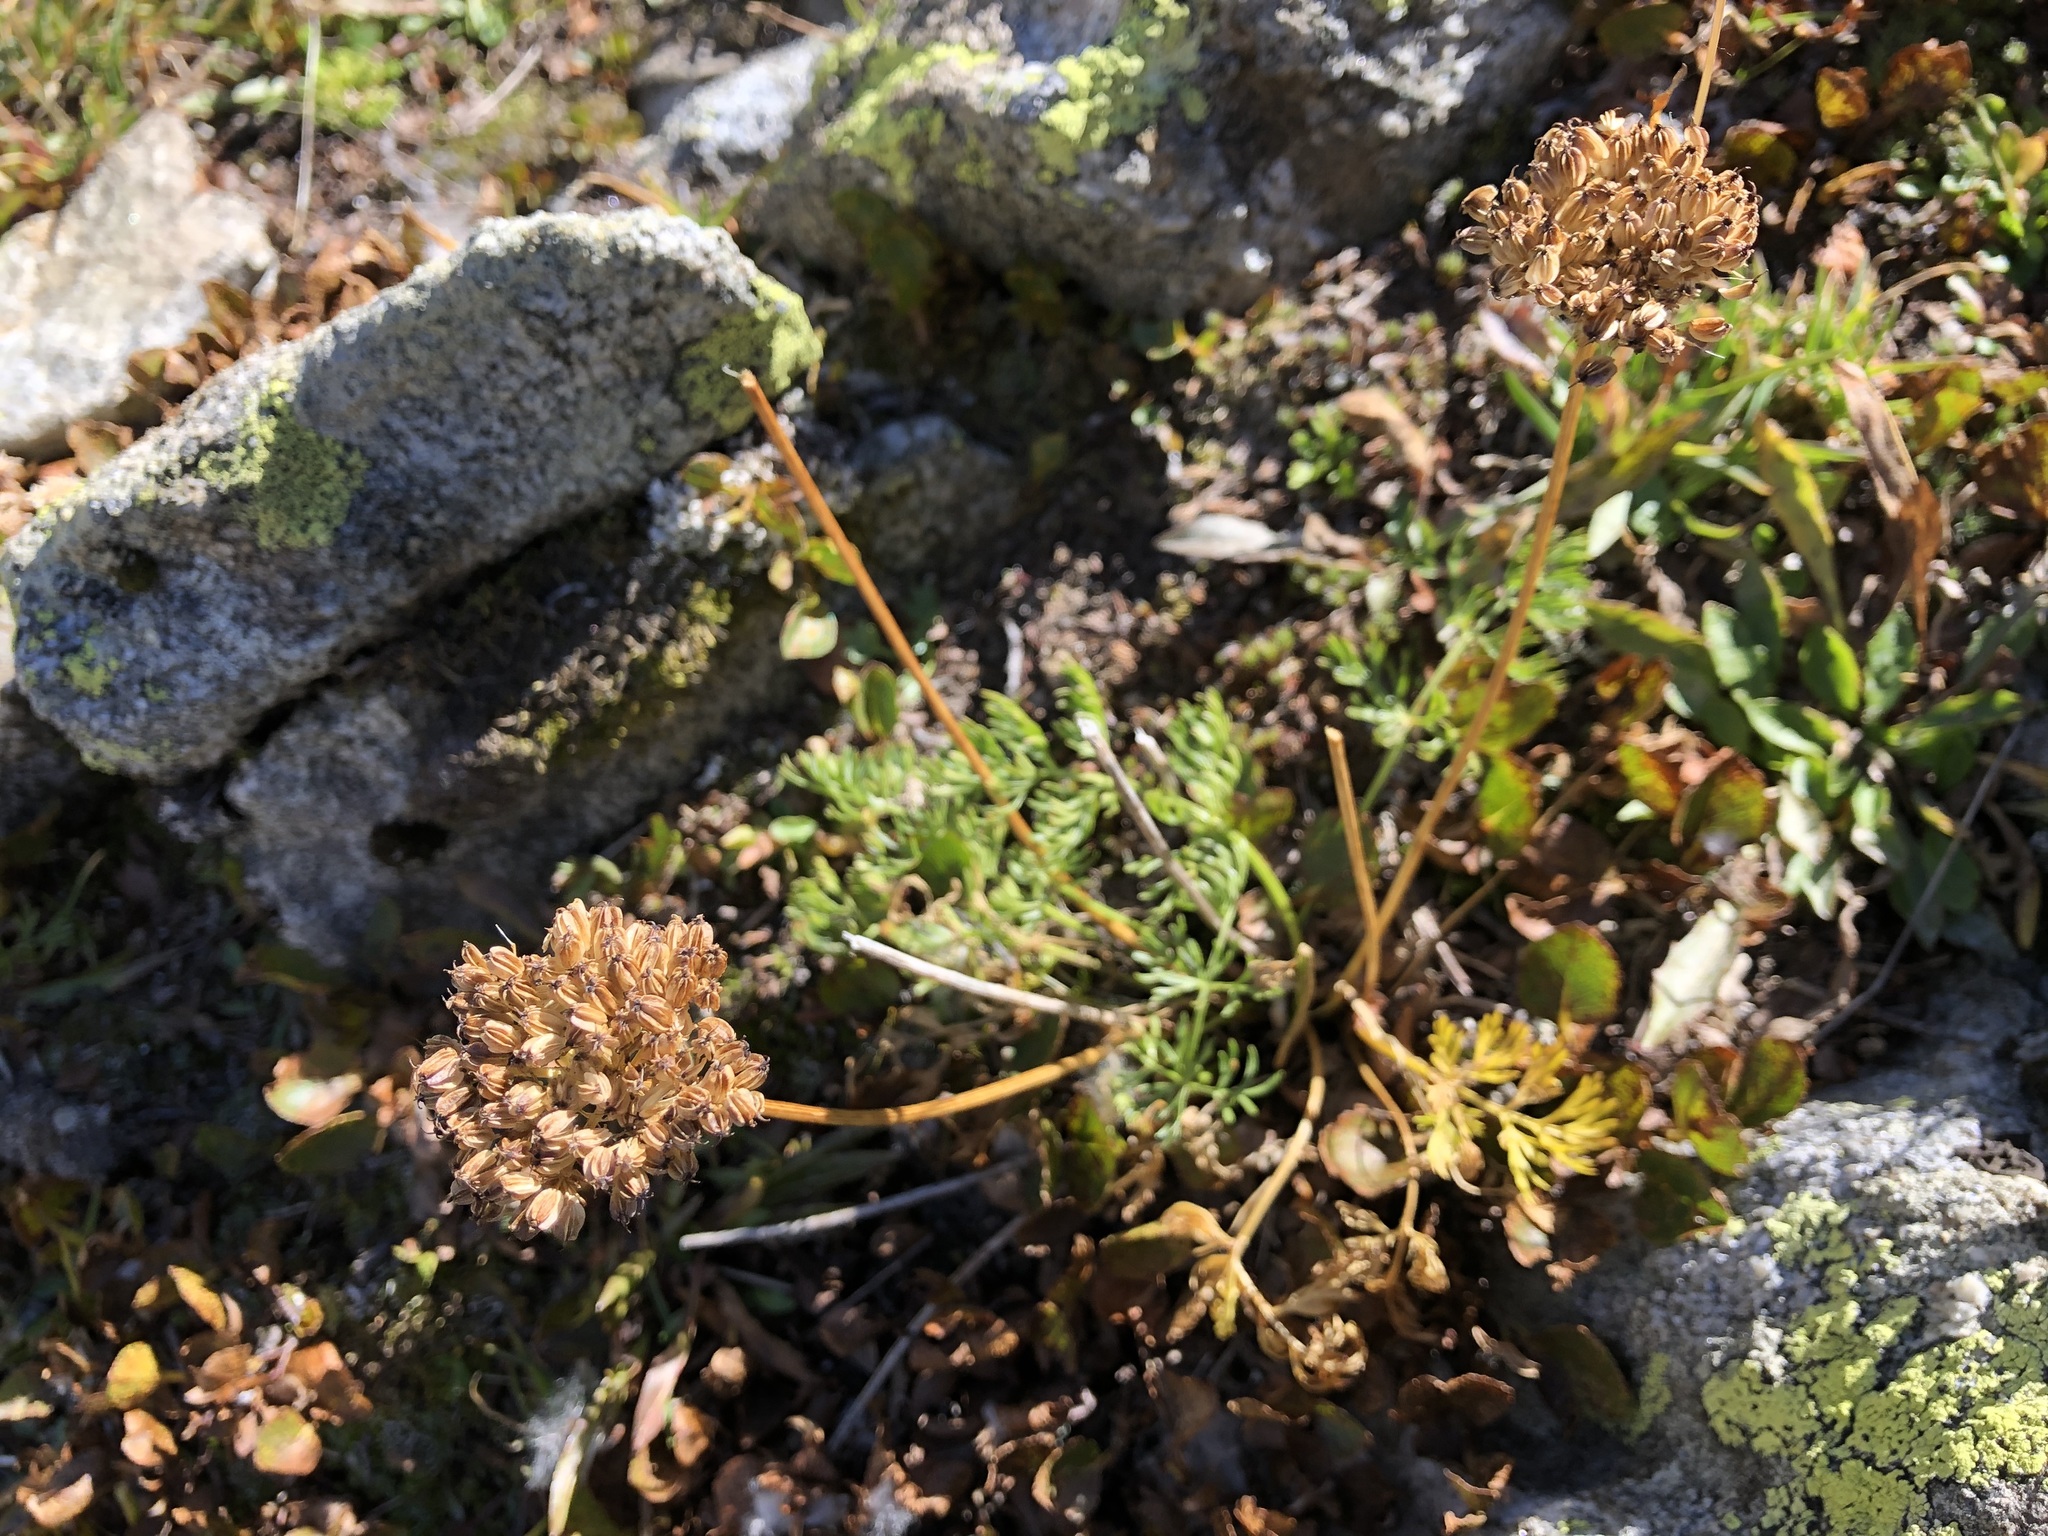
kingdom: Plantae
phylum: Tracheophyta
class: Magnoliopsida
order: Apiales
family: Apiaceae
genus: Pachypleurum
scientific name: Pachypleurum mutellinoides
